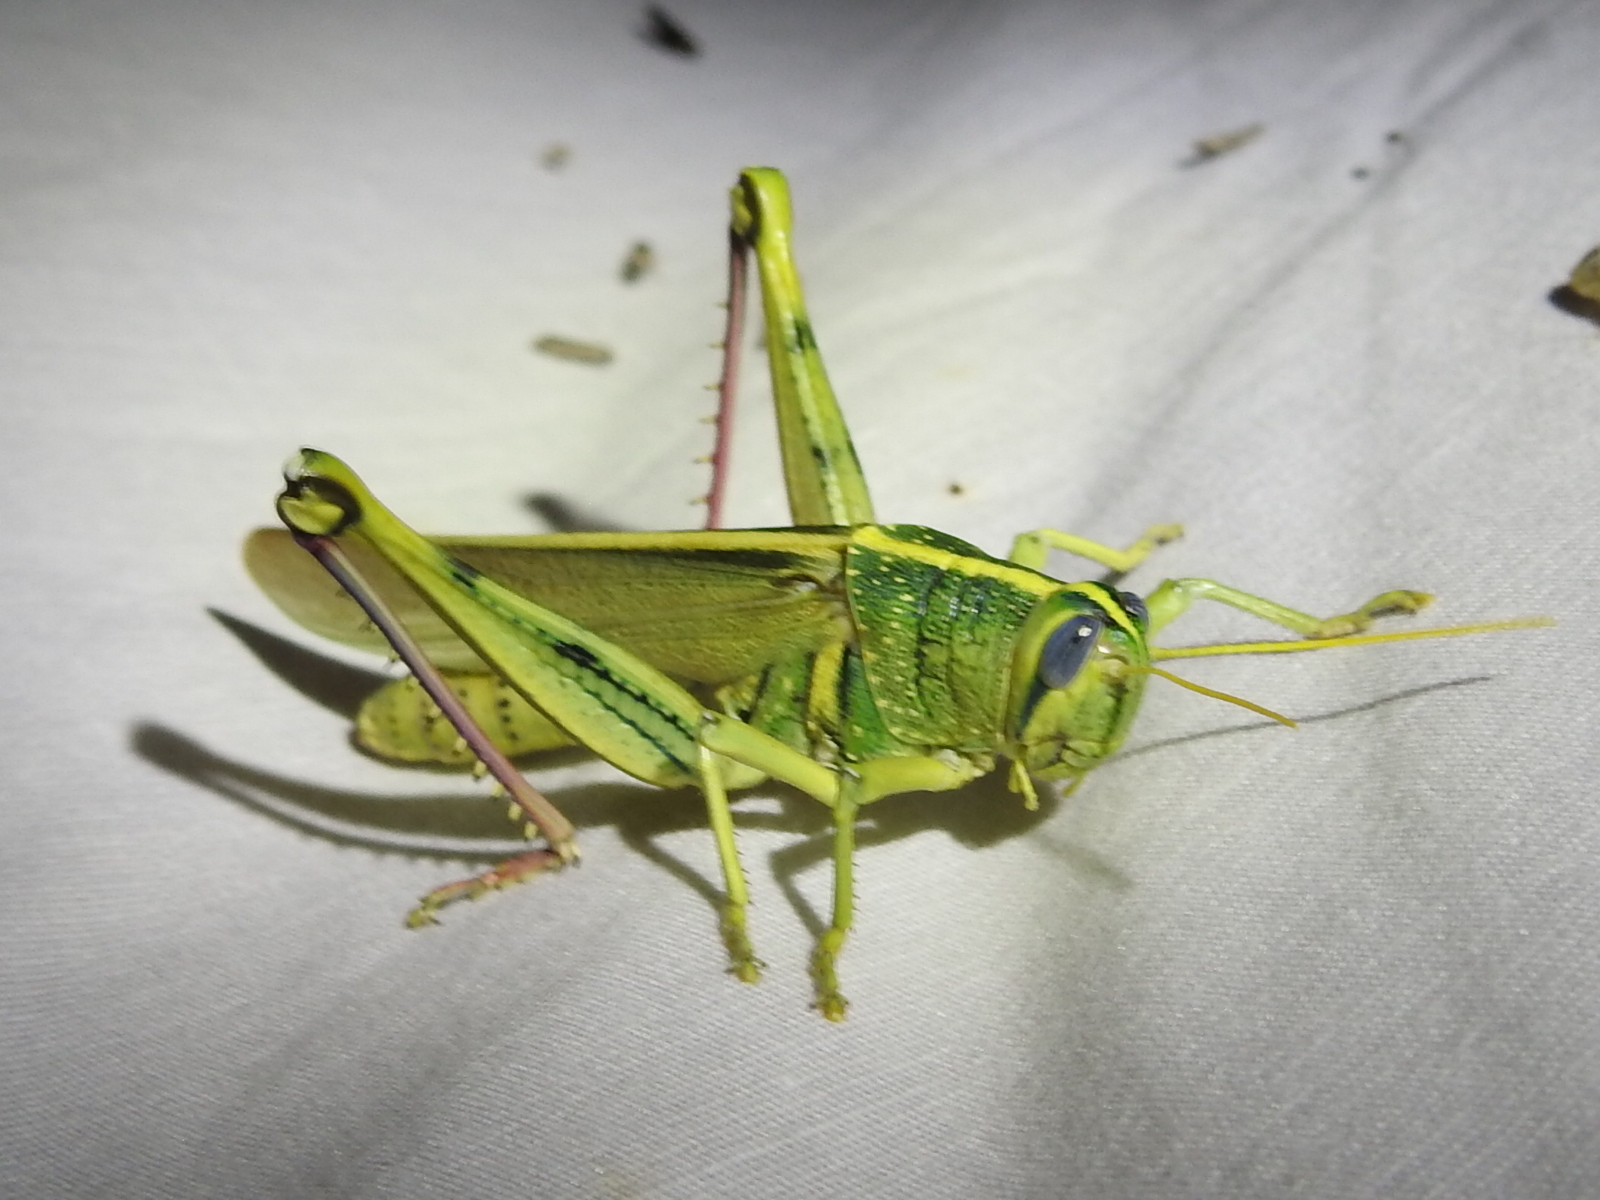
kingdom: Animalia
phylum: Arthropoda
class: Insecta
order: Orthoptera
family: Acrididae
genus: Schistocerca
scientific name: Schistocerca lineata
